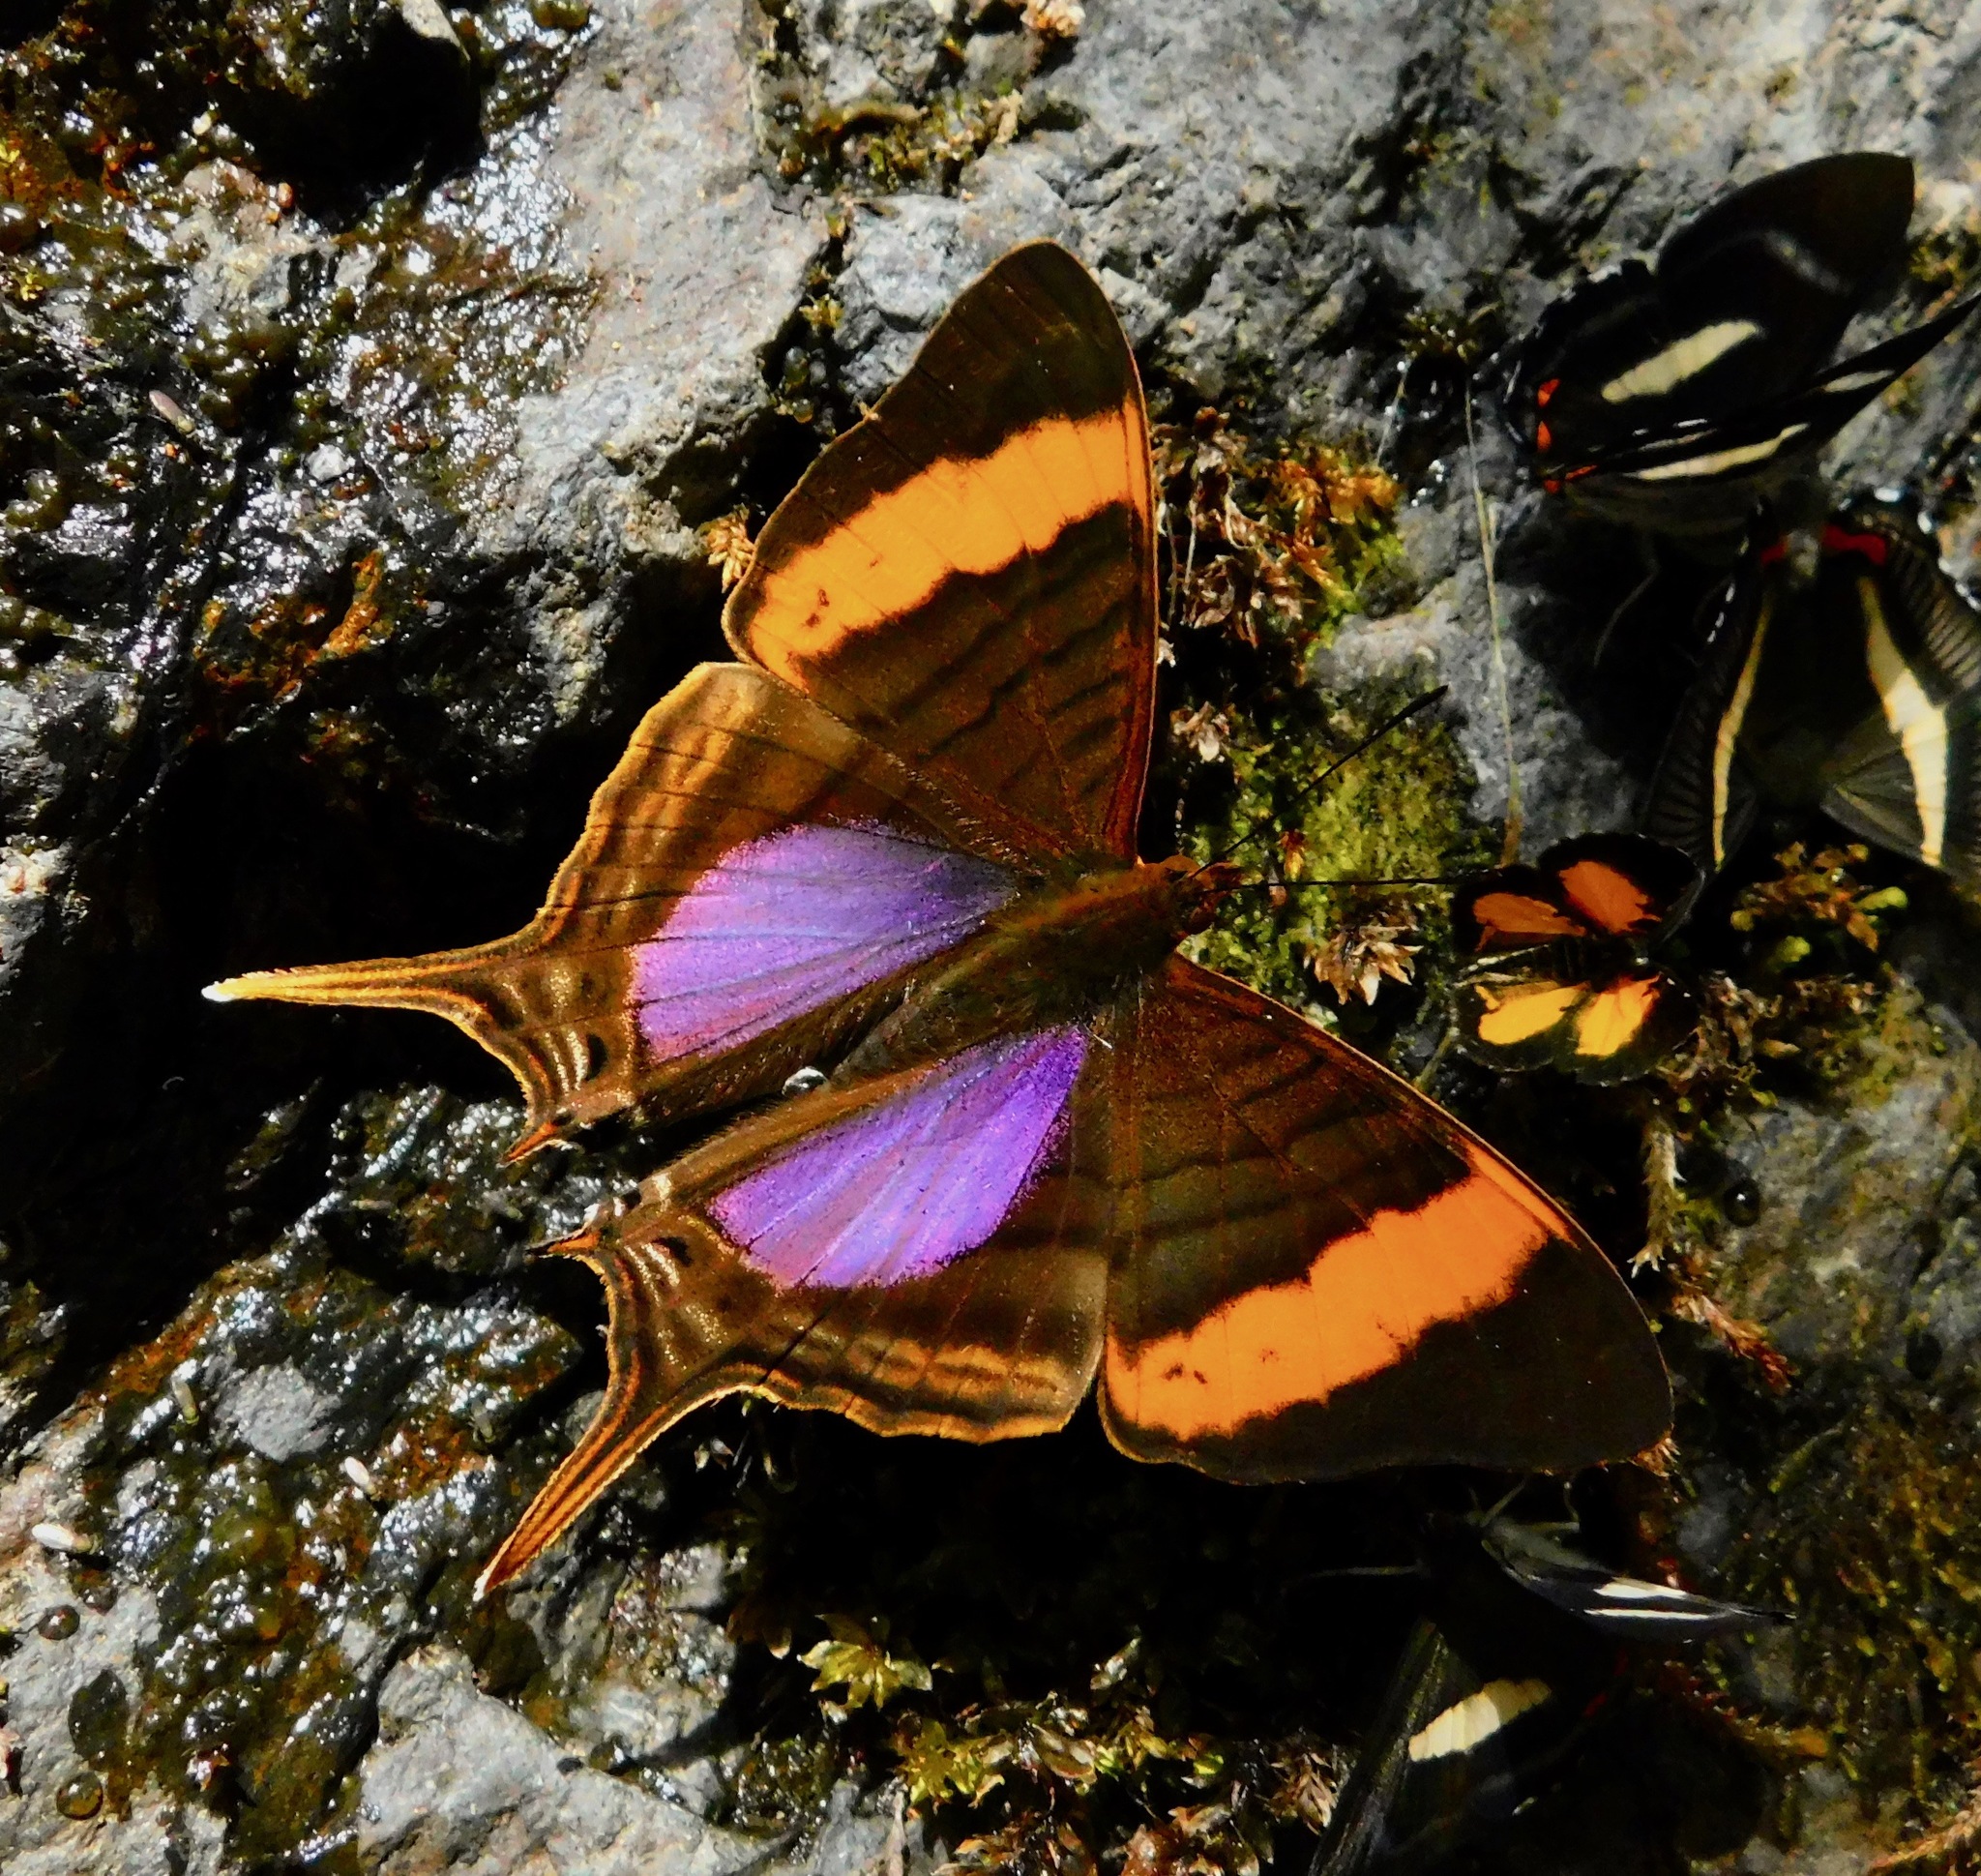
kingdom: Animalia
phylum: Arthropoda
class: Insecta
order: Lepidoptera
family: Nymphalidae
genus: Marpesia
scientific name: Marpesia corinna
